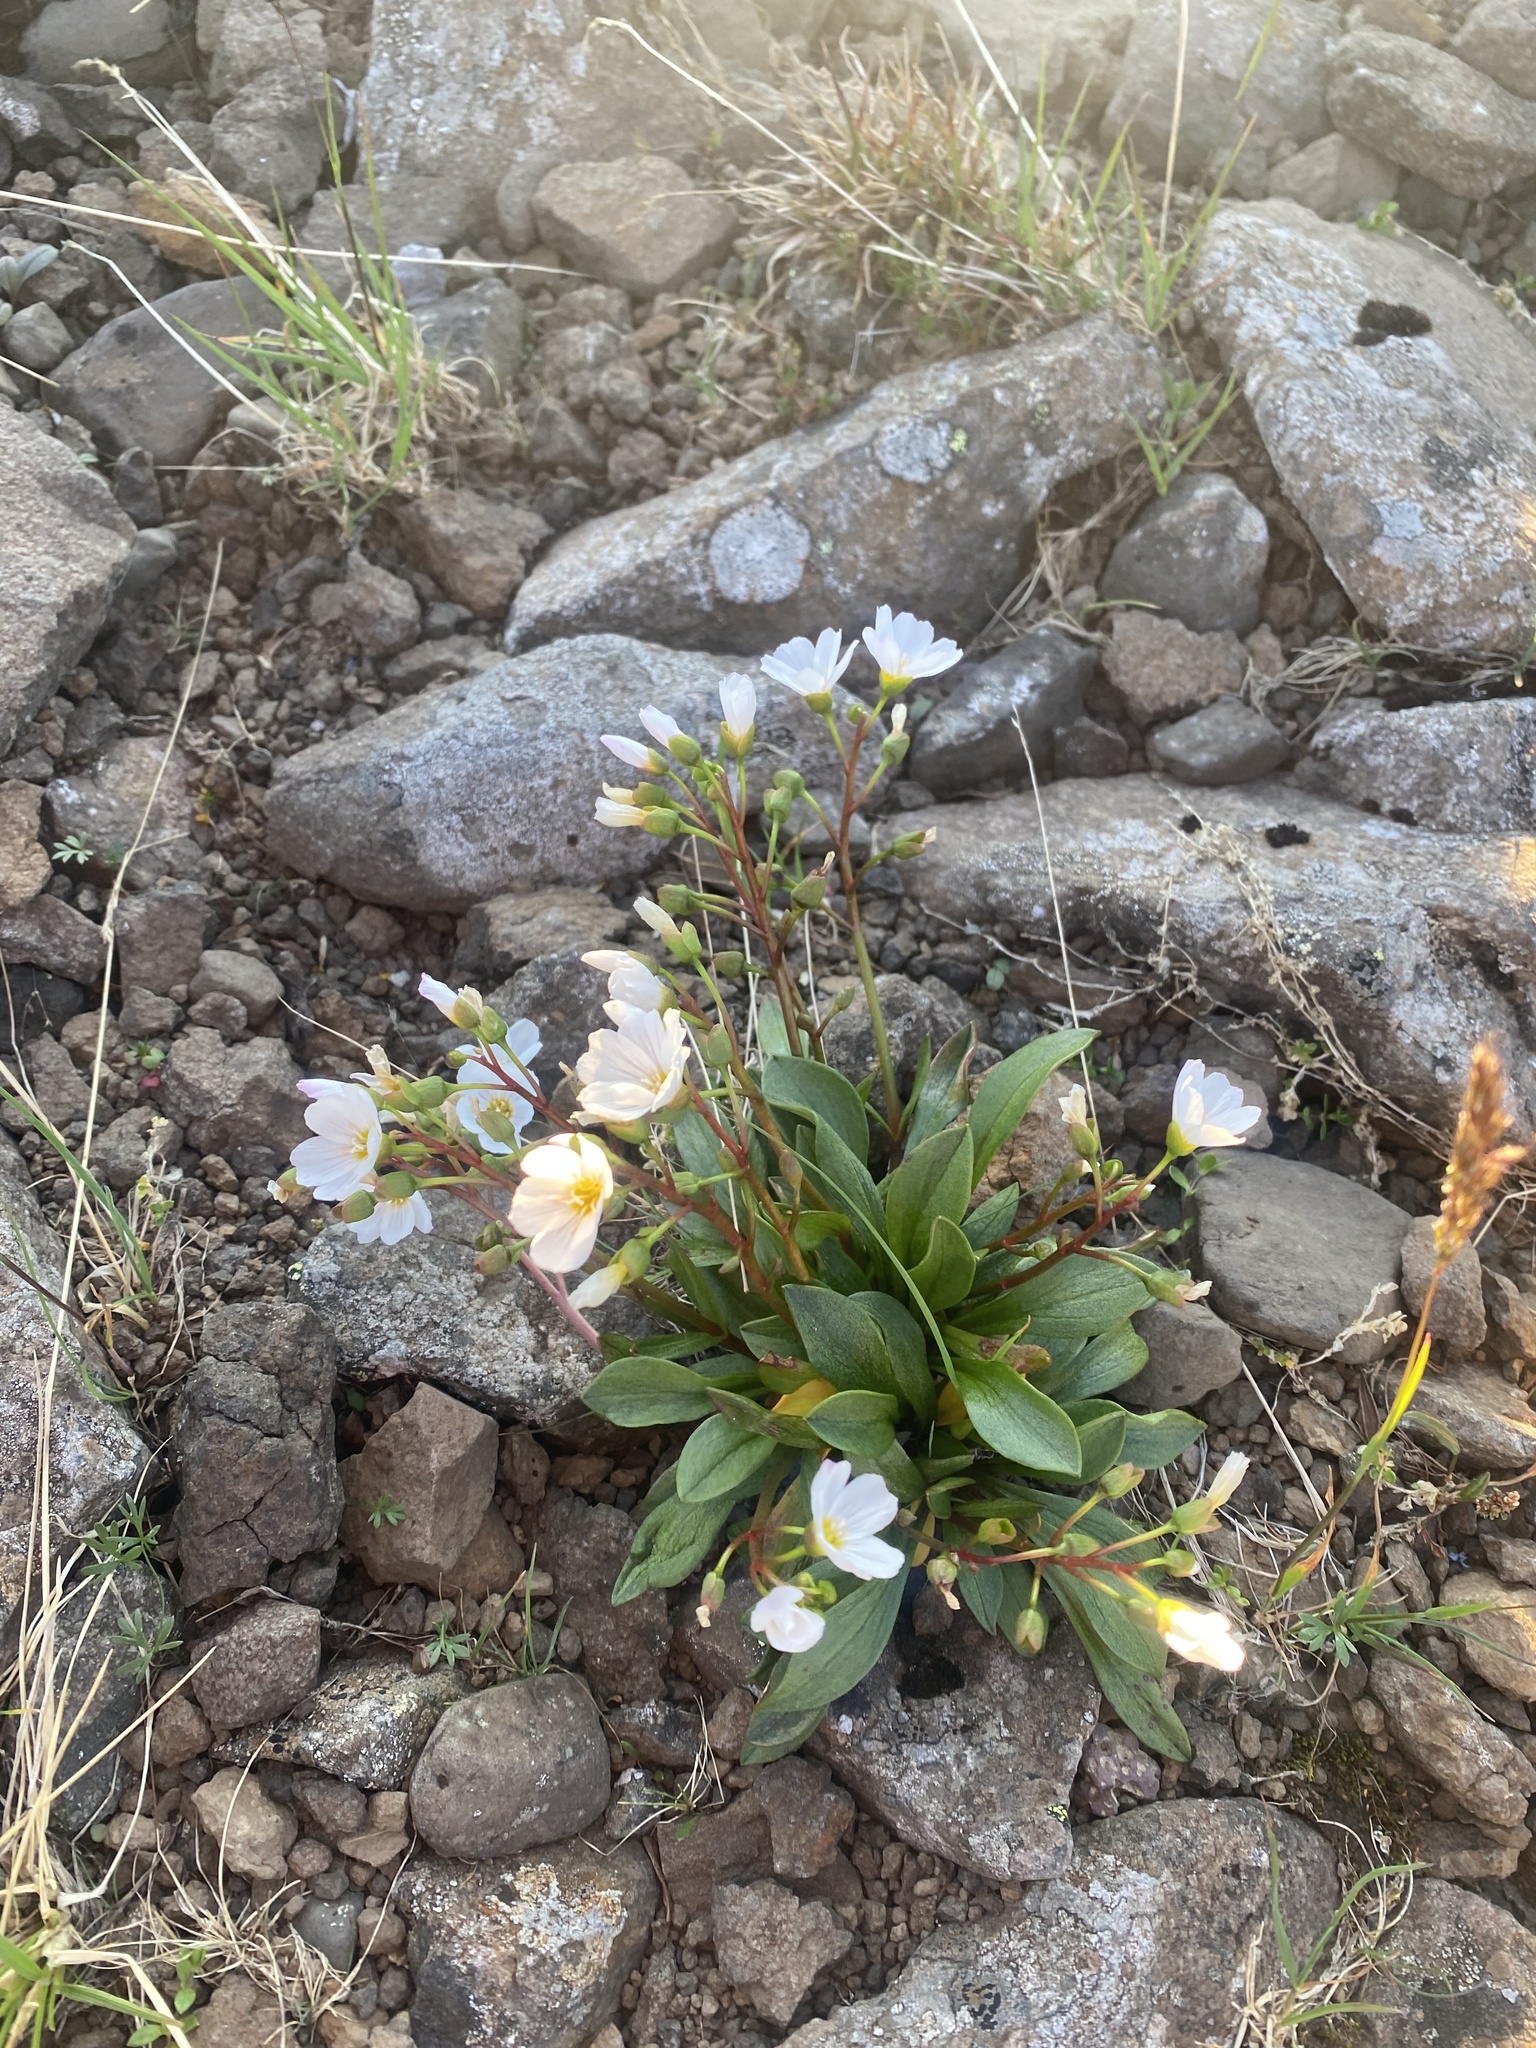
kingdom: Plantae
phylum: Tracheophyta
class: Magnoliopsida
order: Caryophyllales
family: Montiaceae
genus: Claytonia
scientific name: Claytonia joanneana
